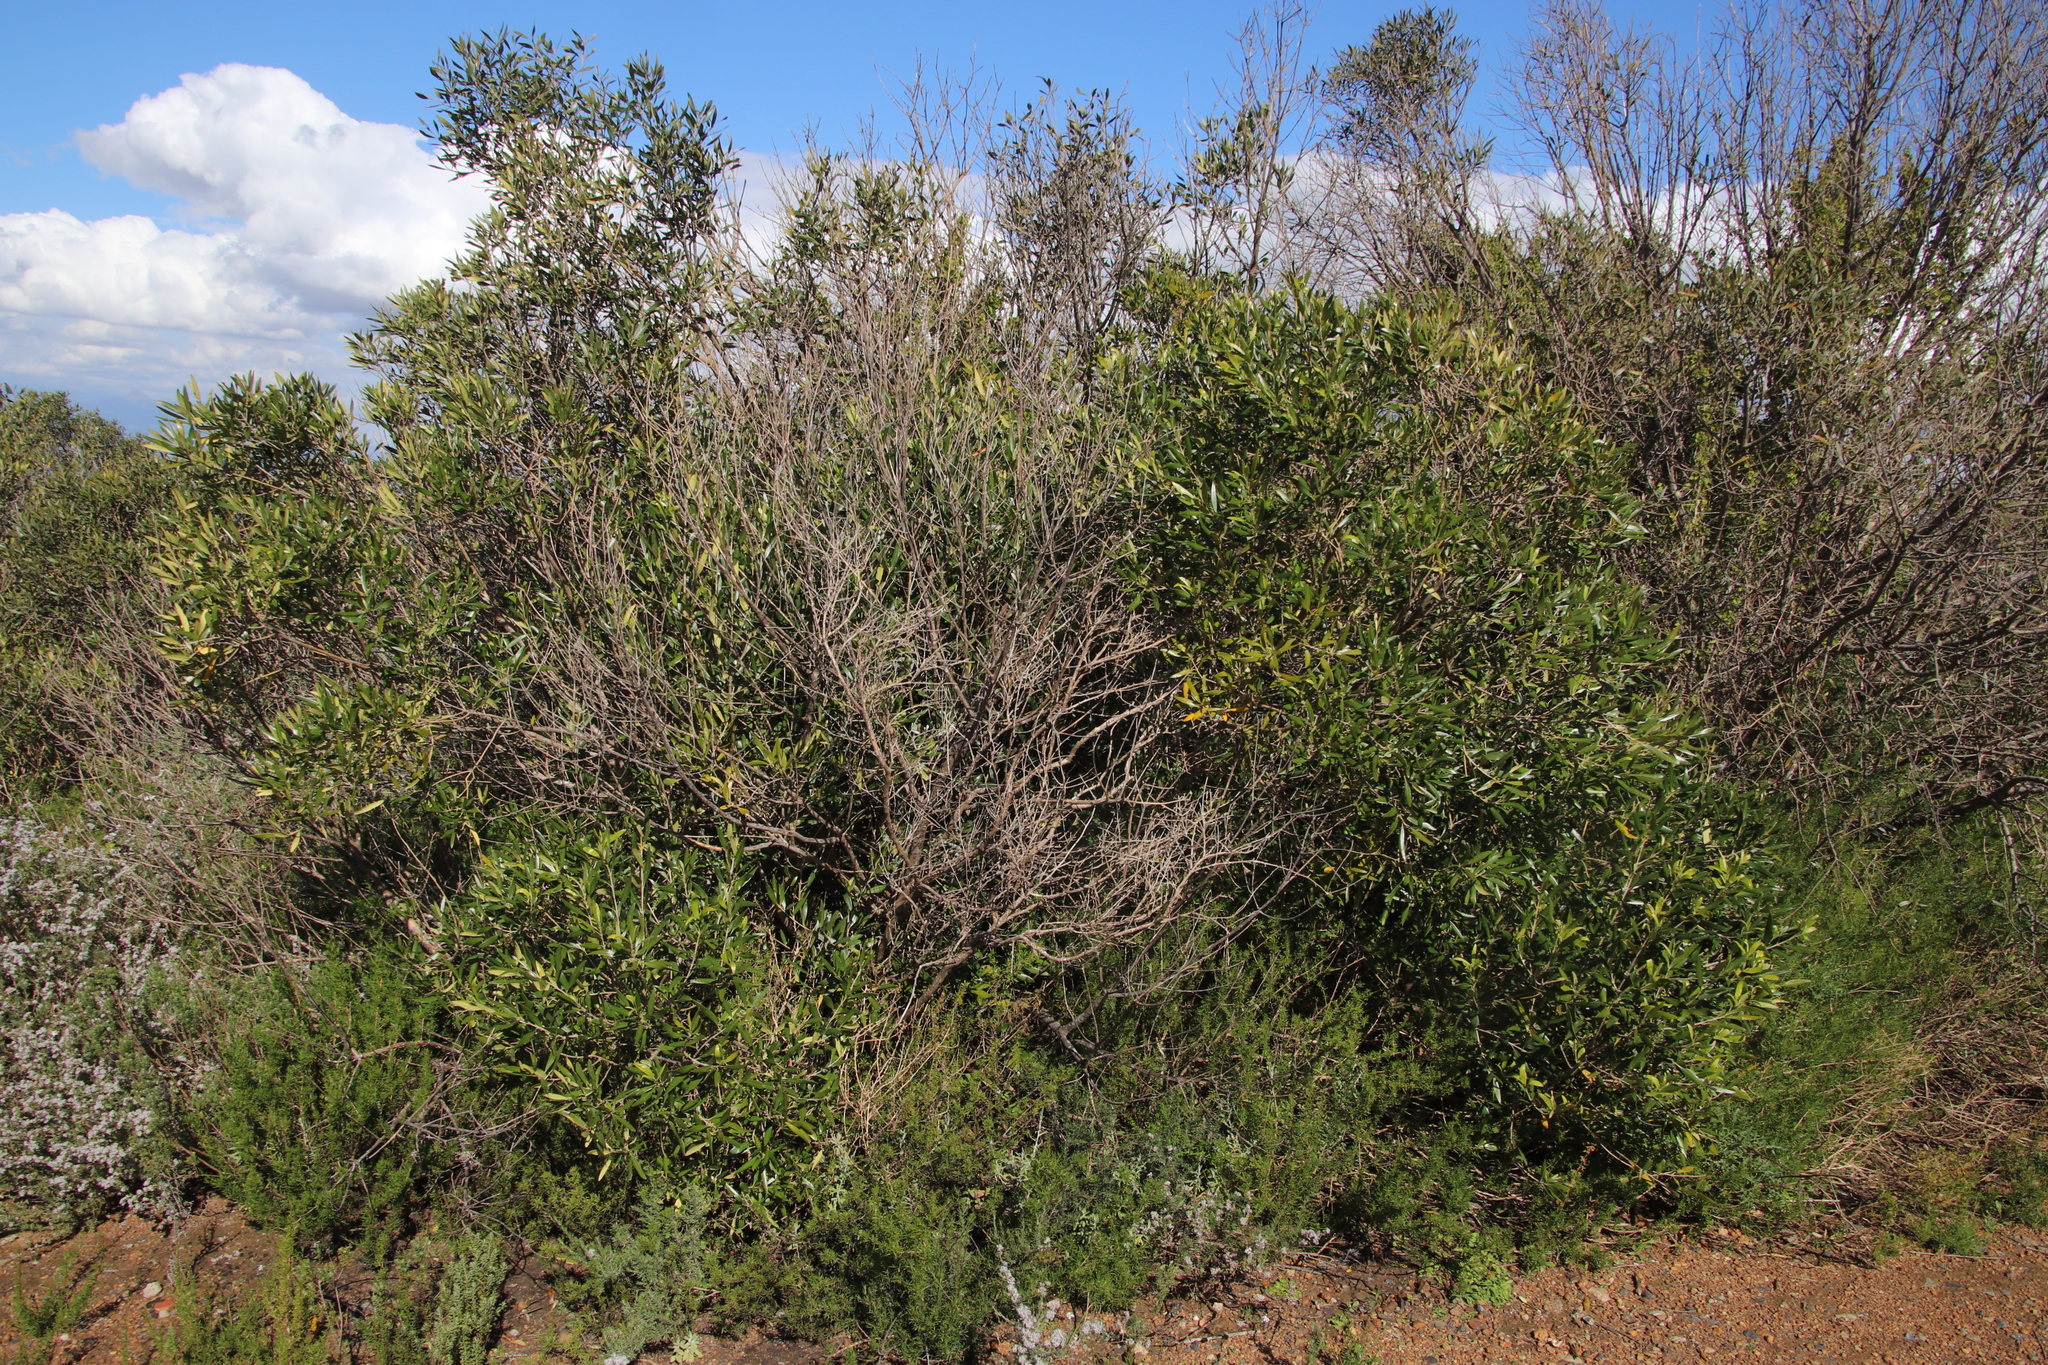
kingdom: Plantae
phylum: Tracheophyta
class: Magnoliopsida
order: Lamiales
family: Oleaceae
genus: Olea
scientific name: Olea europaea
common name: Olive
